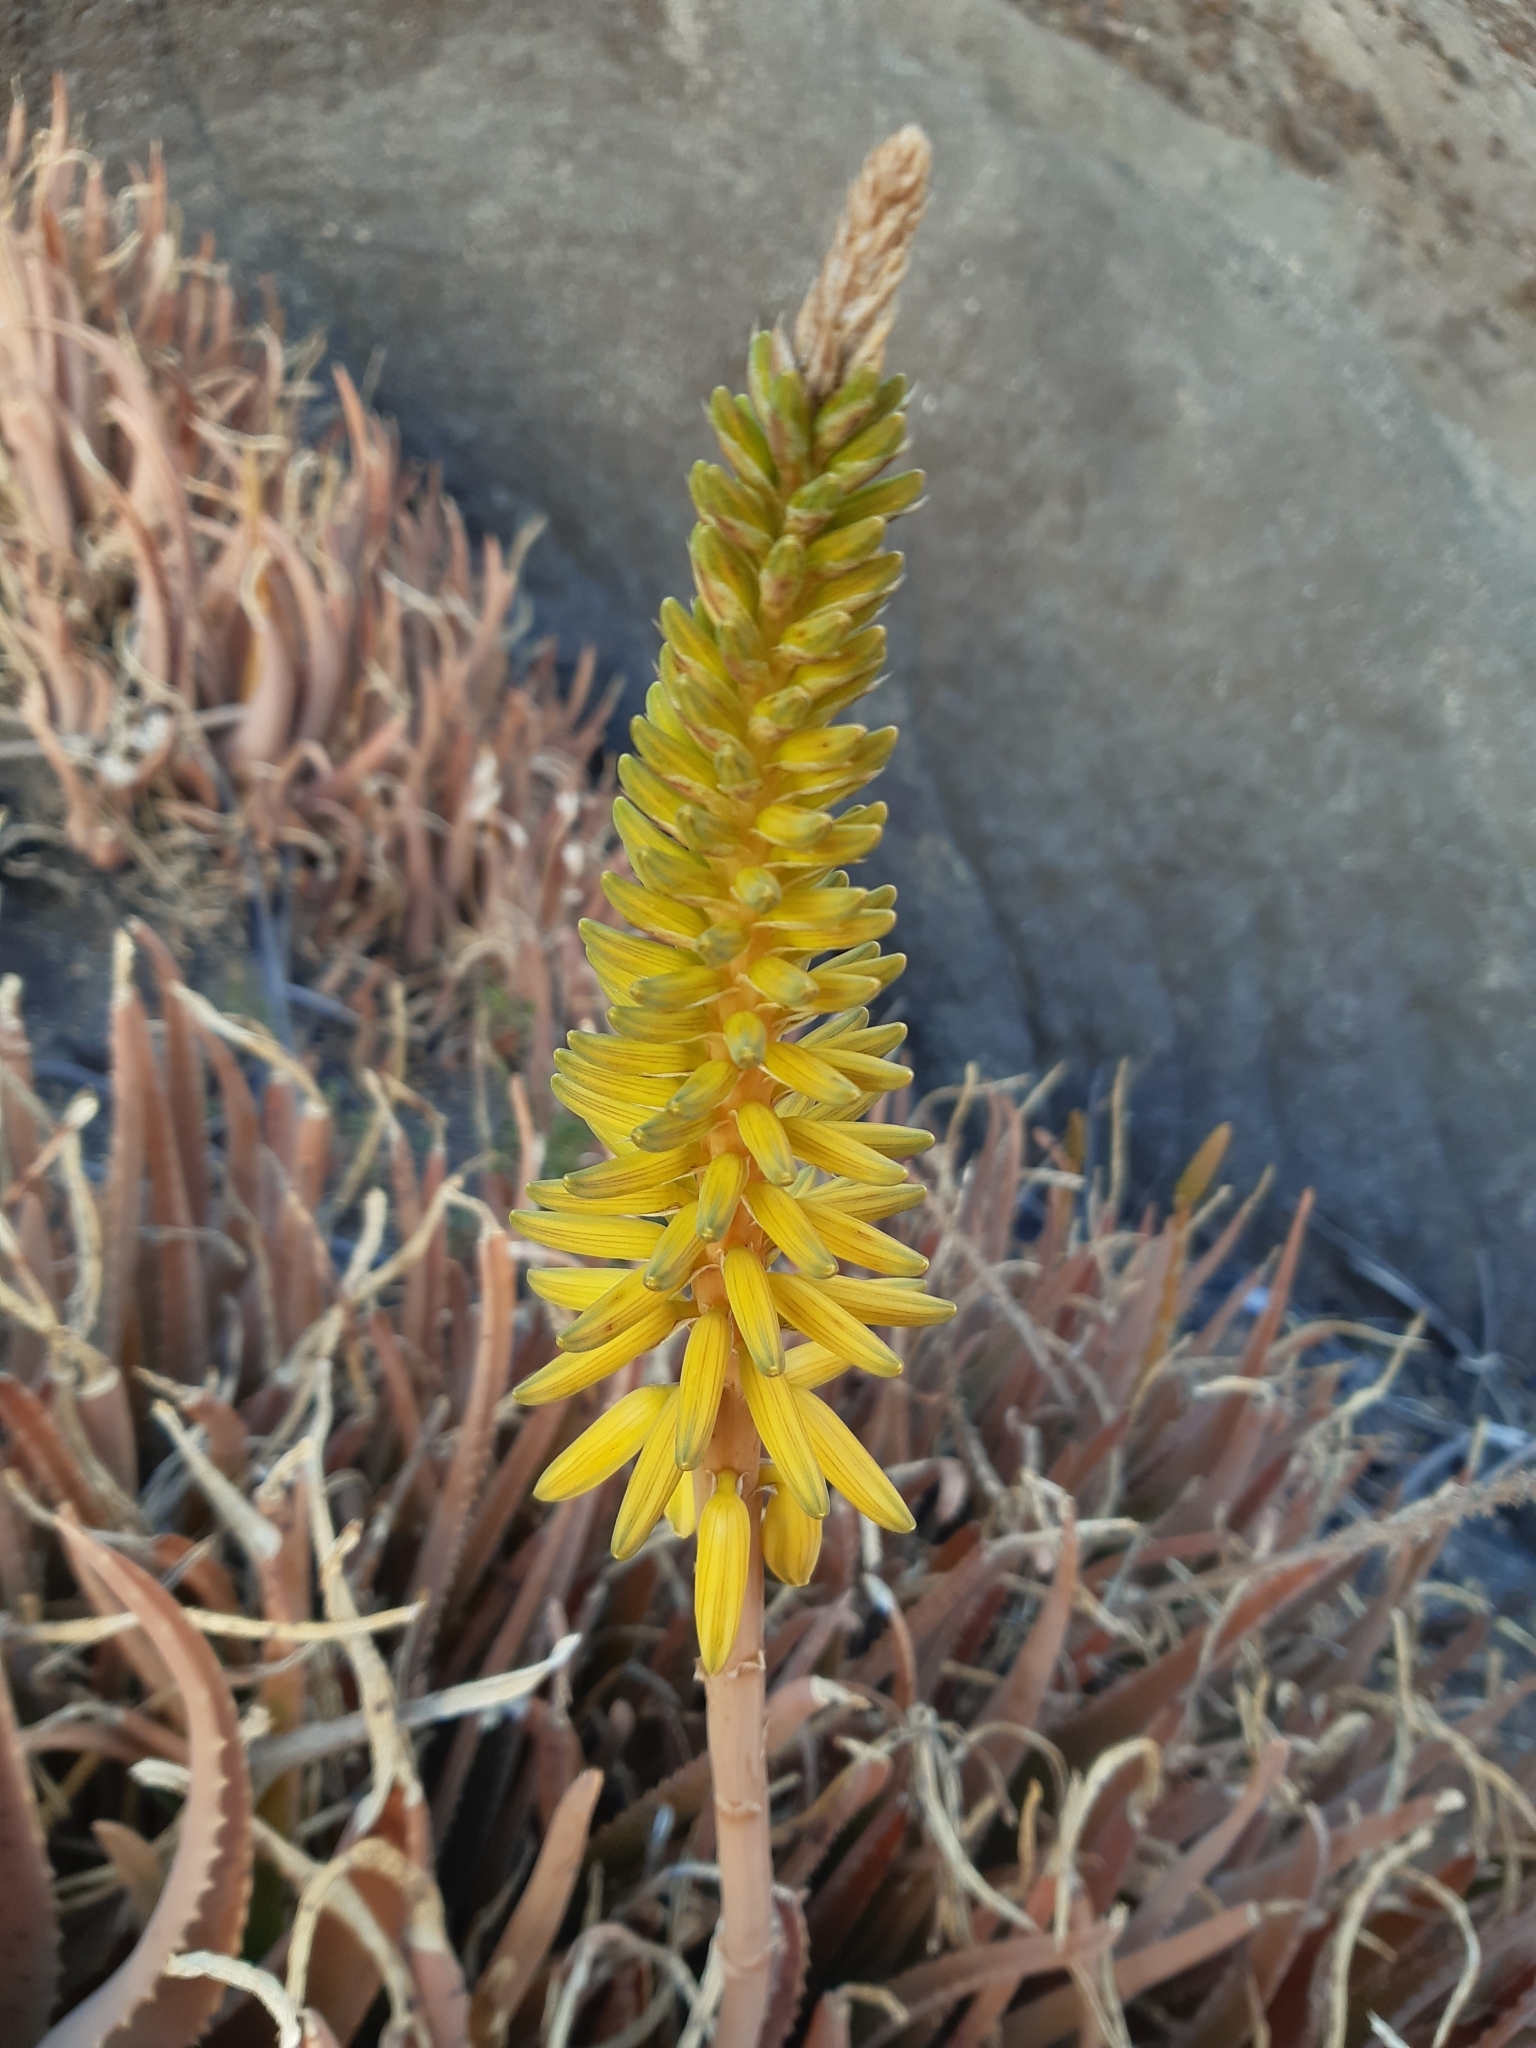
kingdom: Plantae
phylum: Tracheophyta
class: Liliopsida
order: Asparagales
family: Asphodelaceae
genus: Aloe
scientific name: Aloe vera
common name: Barbados aloe
